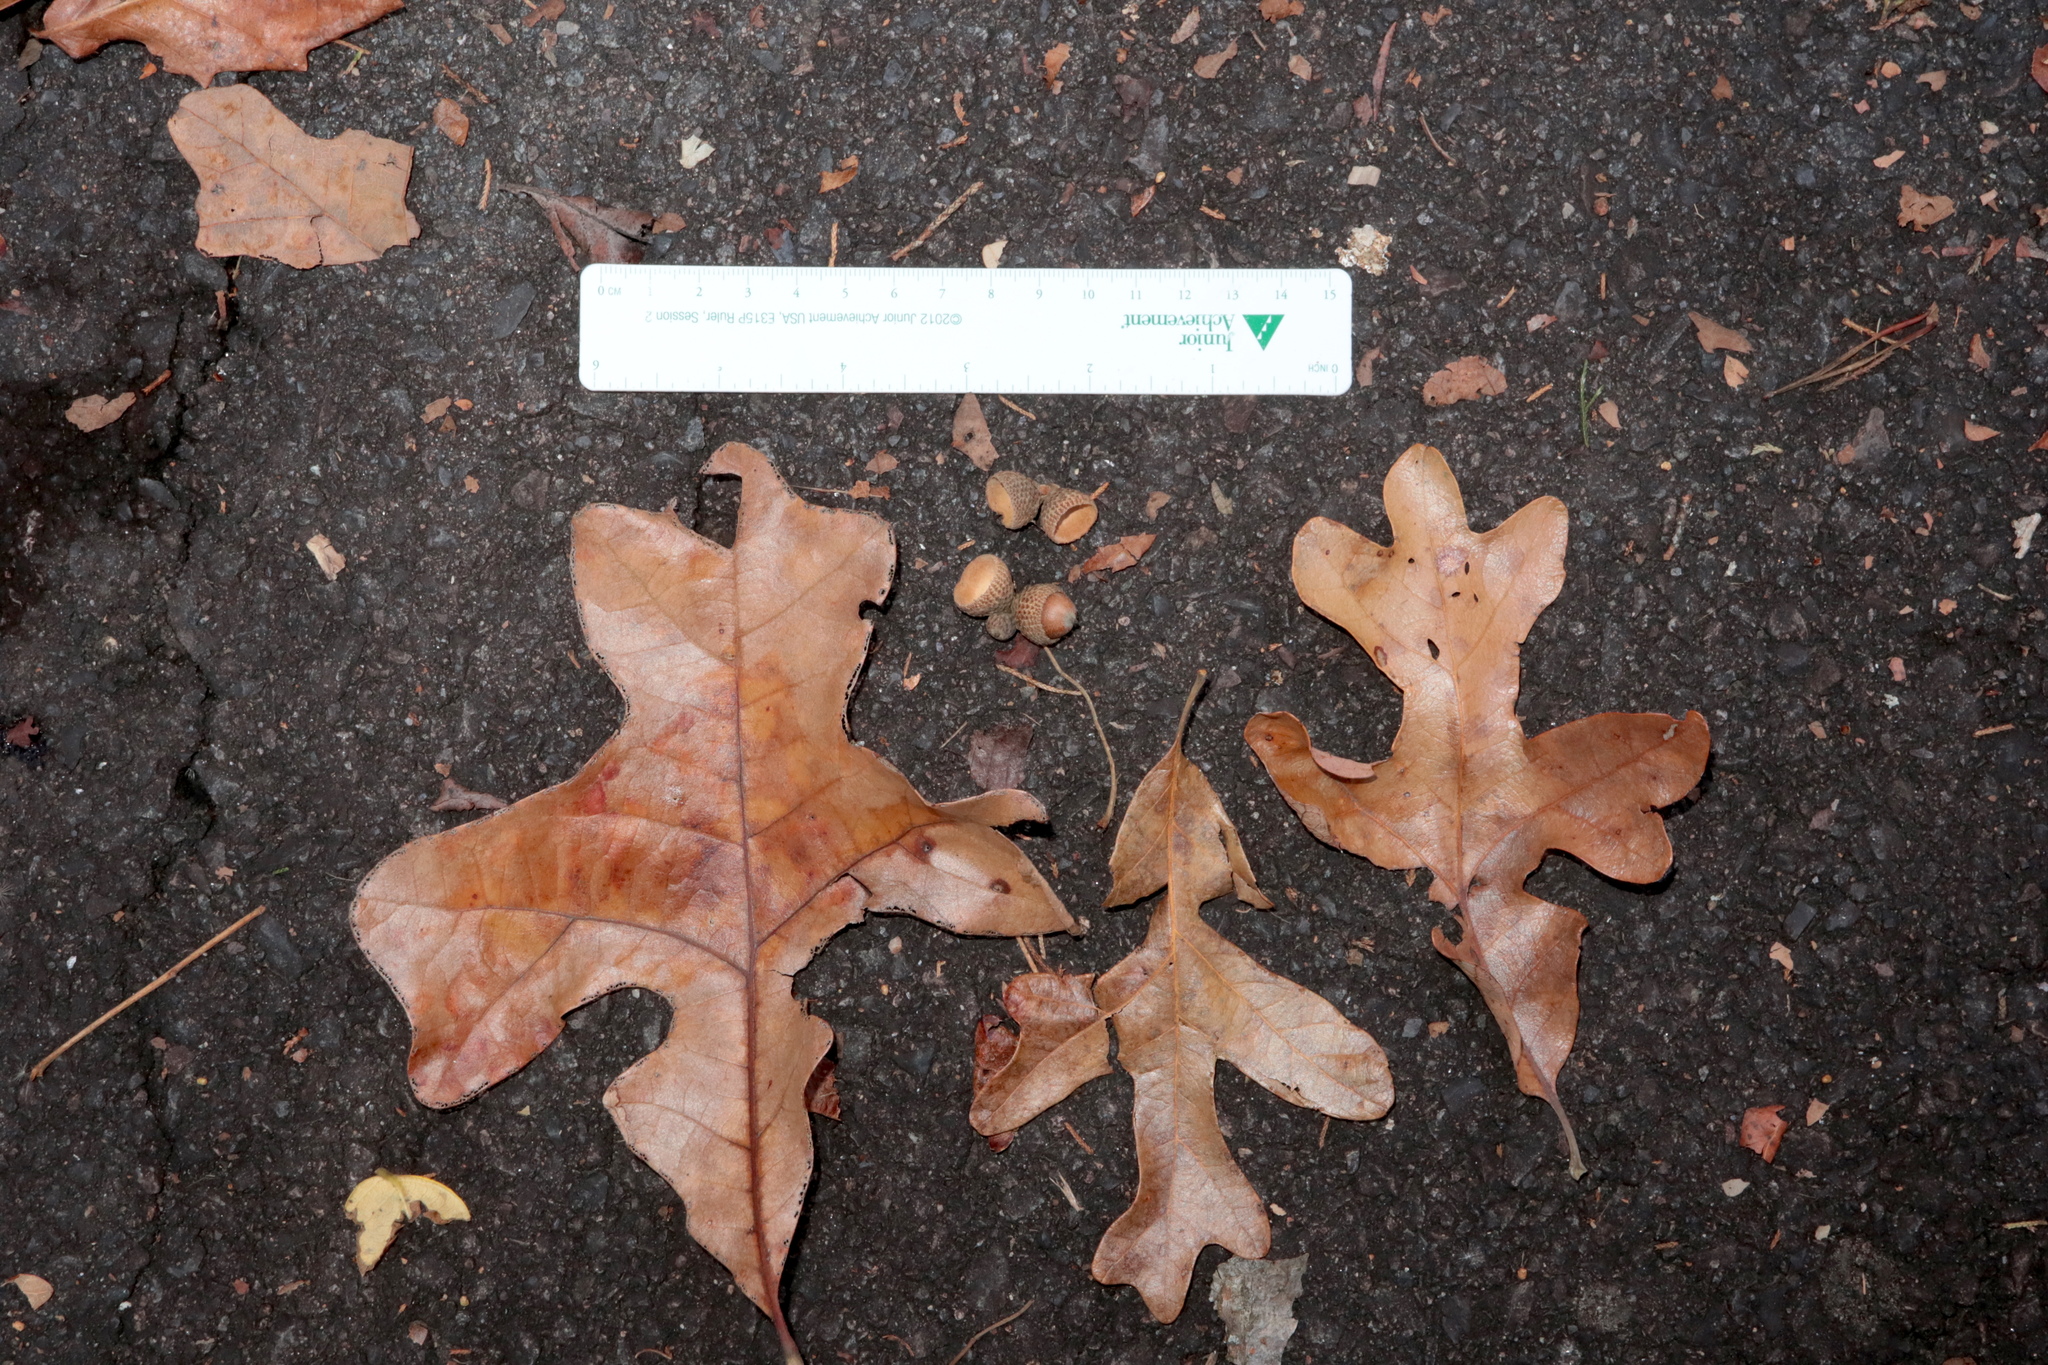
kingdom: Plantae
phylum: Tracheophyta
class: Magnoliopsida
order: Fagales
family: Fagaceae
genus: Quercus
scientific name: Quercus stellata
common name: Post oak
